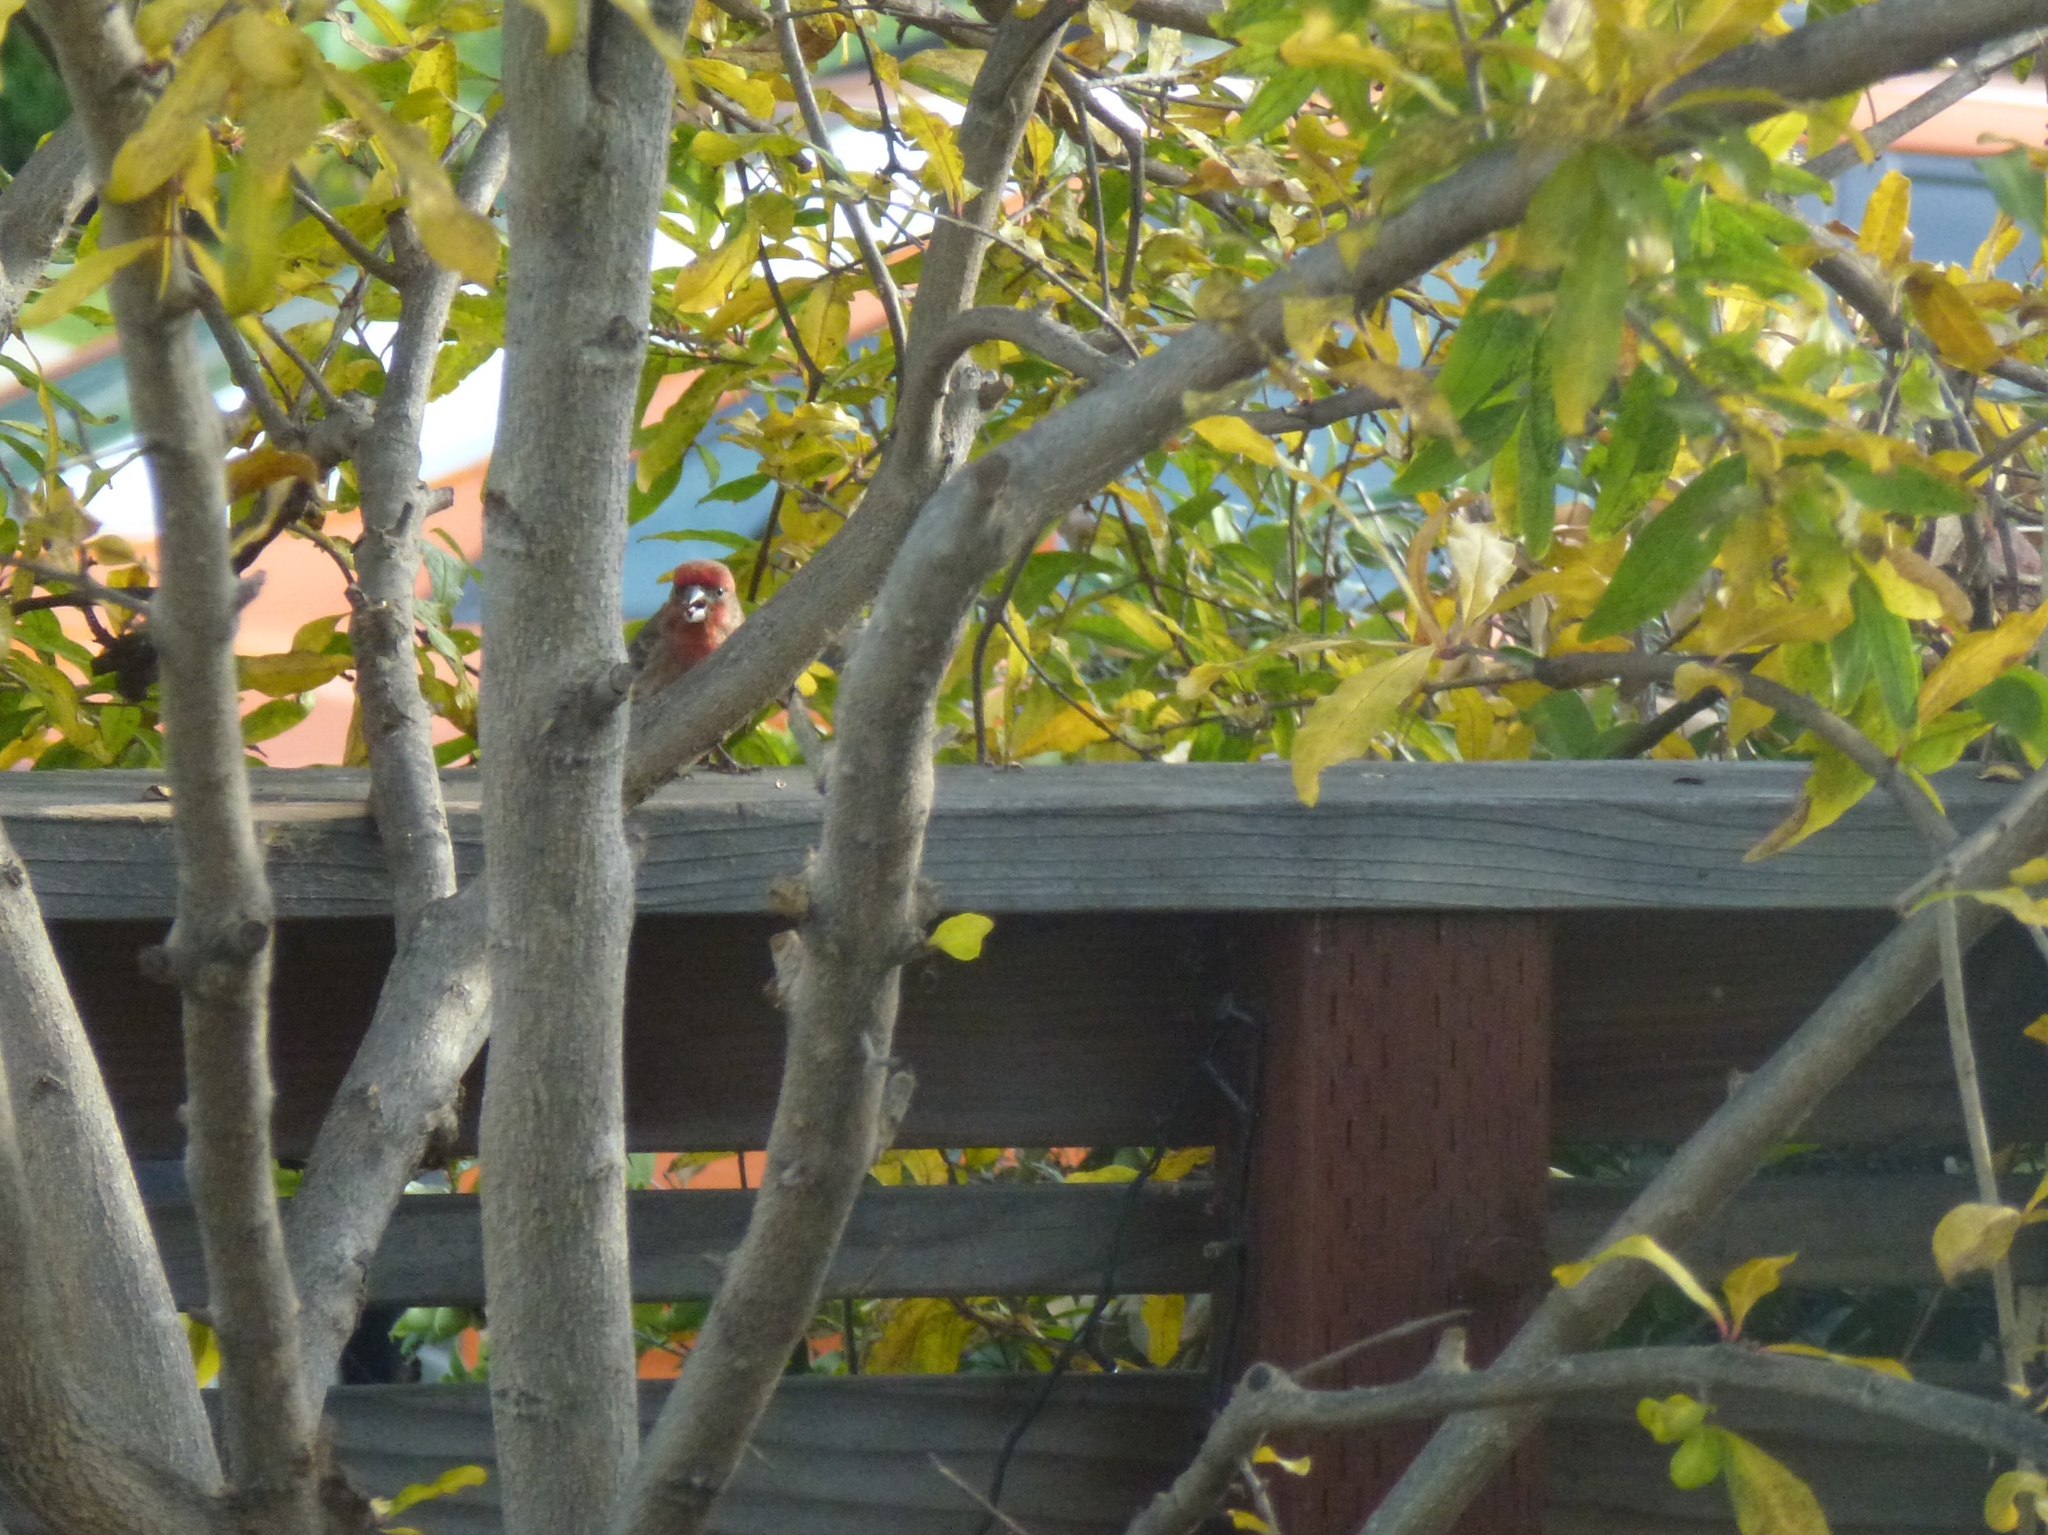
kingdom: Animalia
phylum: Chordata
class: Aves
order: Passeriformes
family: Fringillidae
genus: Haemorhous
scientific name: Haemorhous mexicanus
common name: House finch
